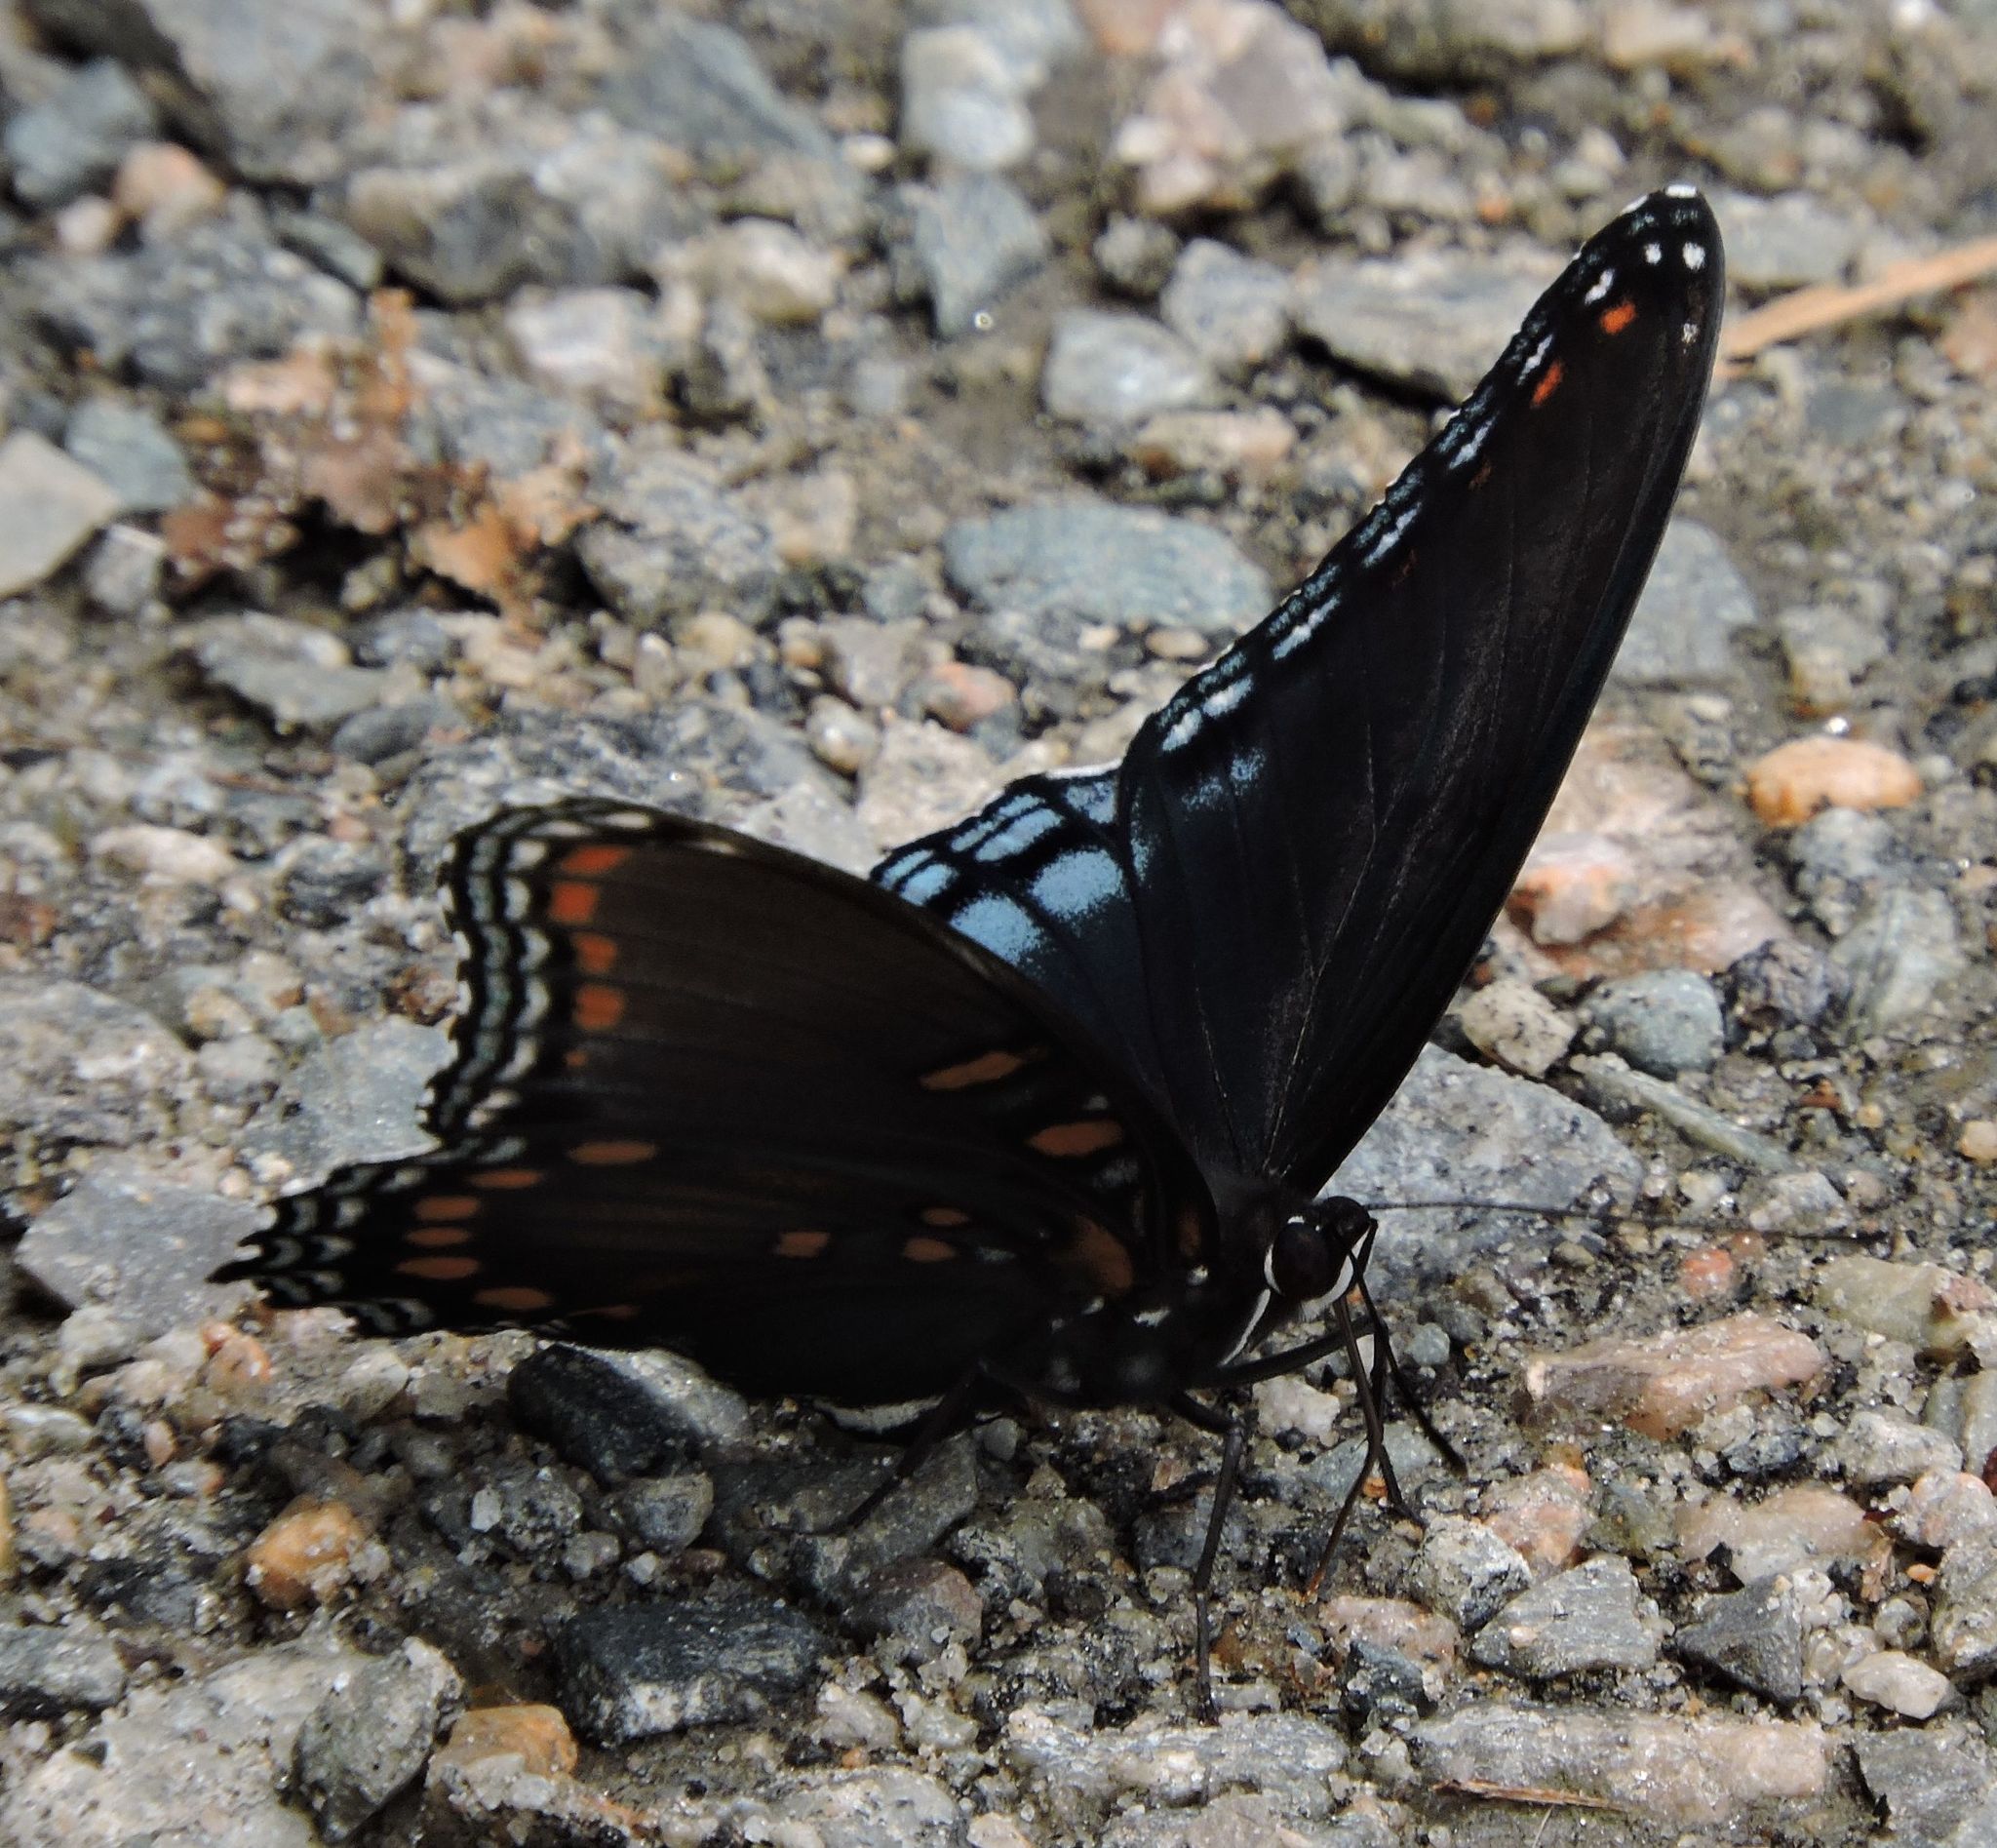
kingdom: Animalia
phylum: Arthropoda
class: Insecta
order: Lepidoptera
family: Nymphalidae
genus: Limenitis
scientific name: Limenitis astyanax
